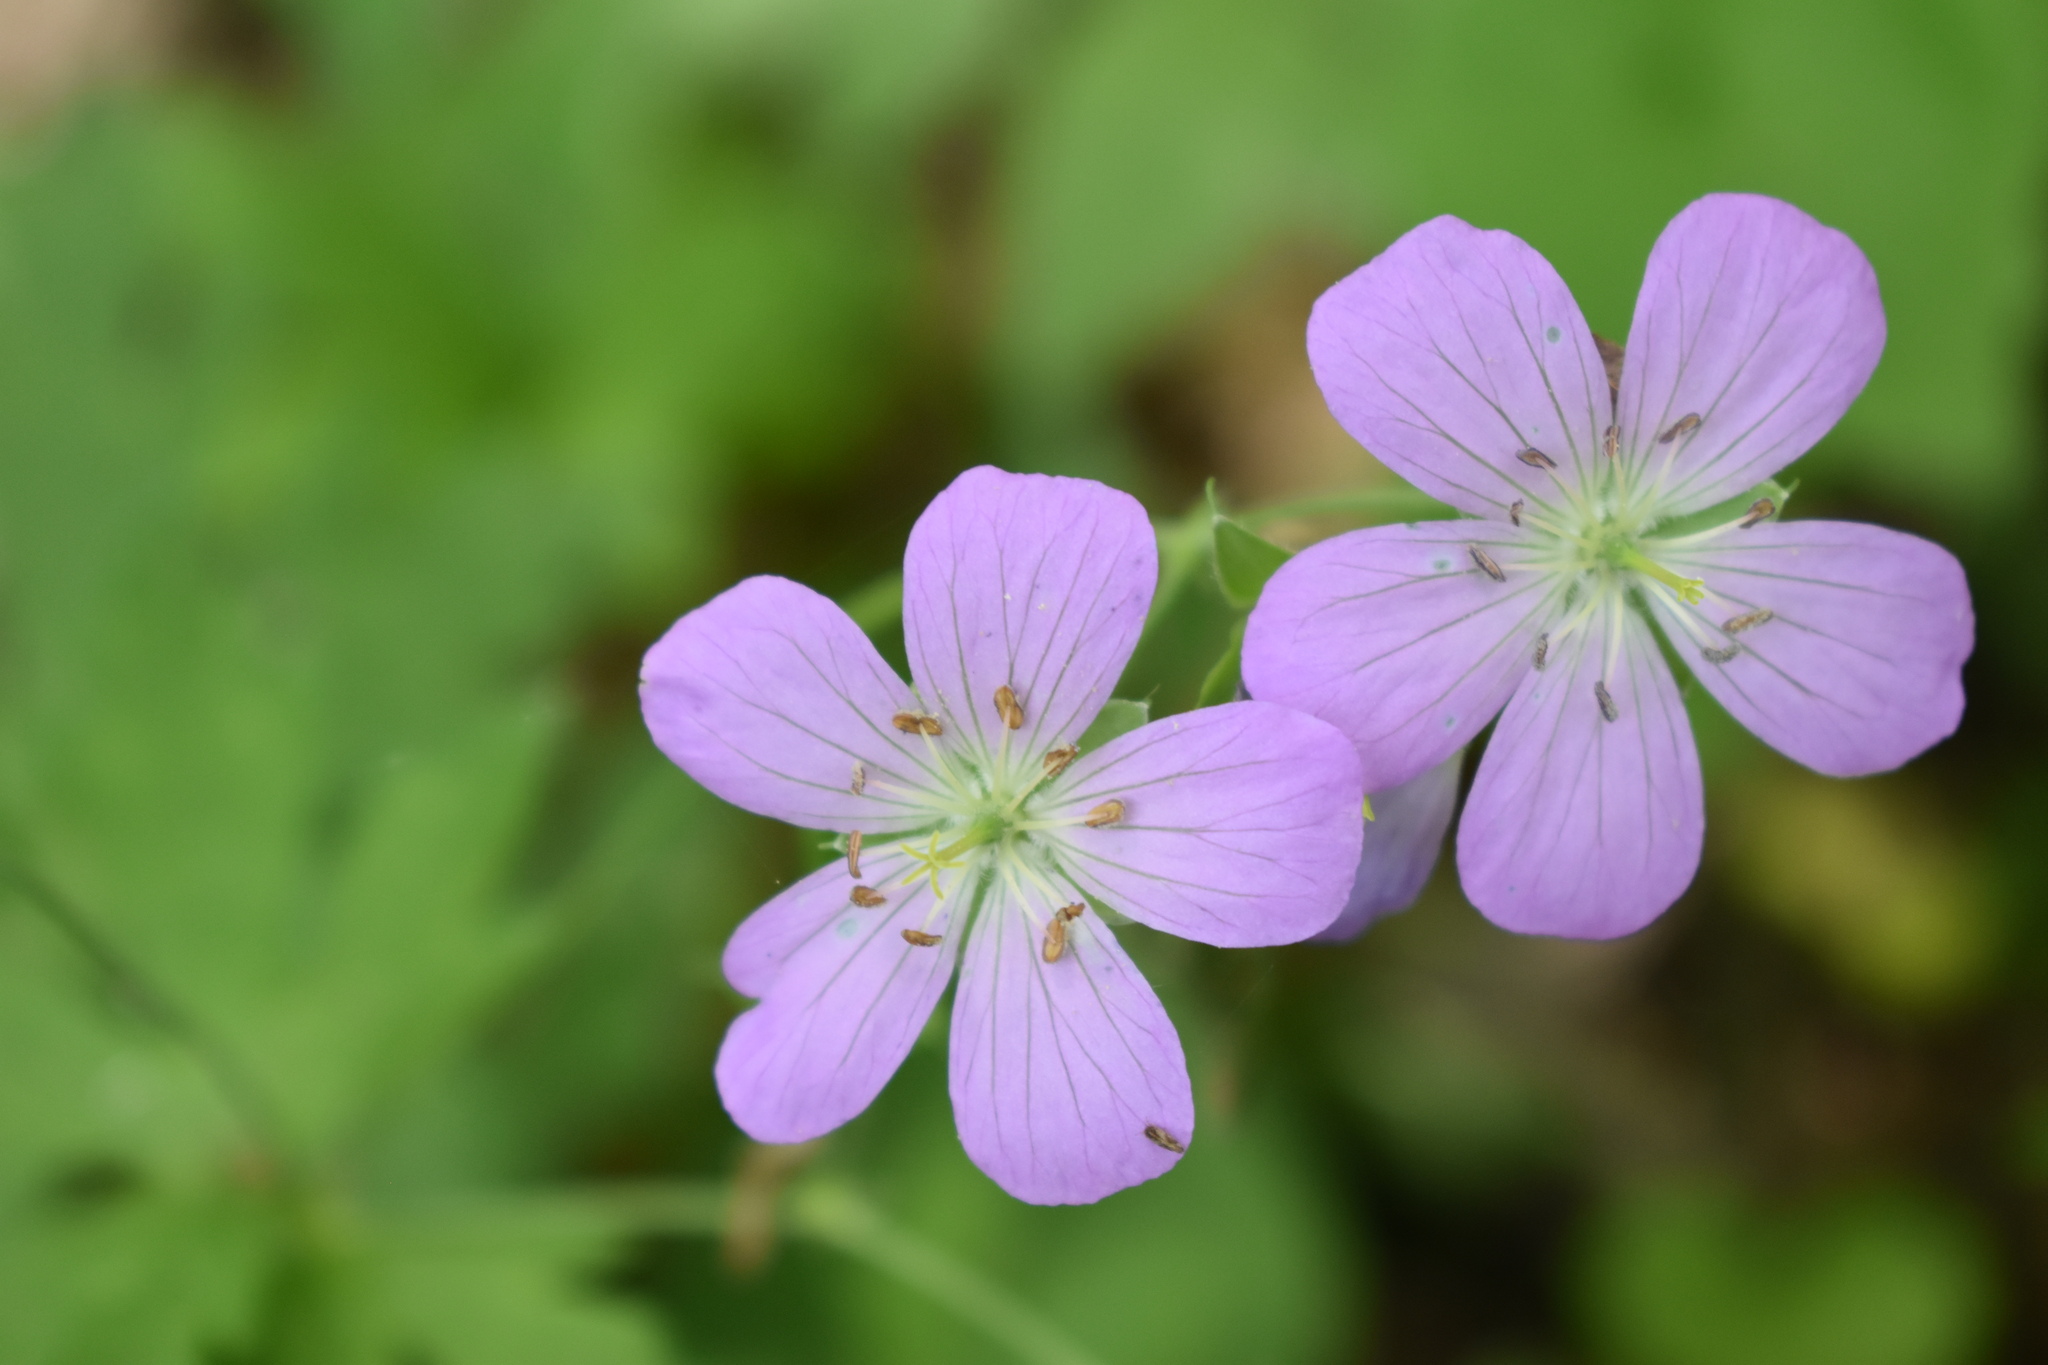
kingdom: Plantae
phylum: Tracheophyta
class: Magnoliopsida
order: Geraniales
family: Geraniaceae
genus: Geranium
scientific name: Geranium maculatum
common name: Spotted geranium
